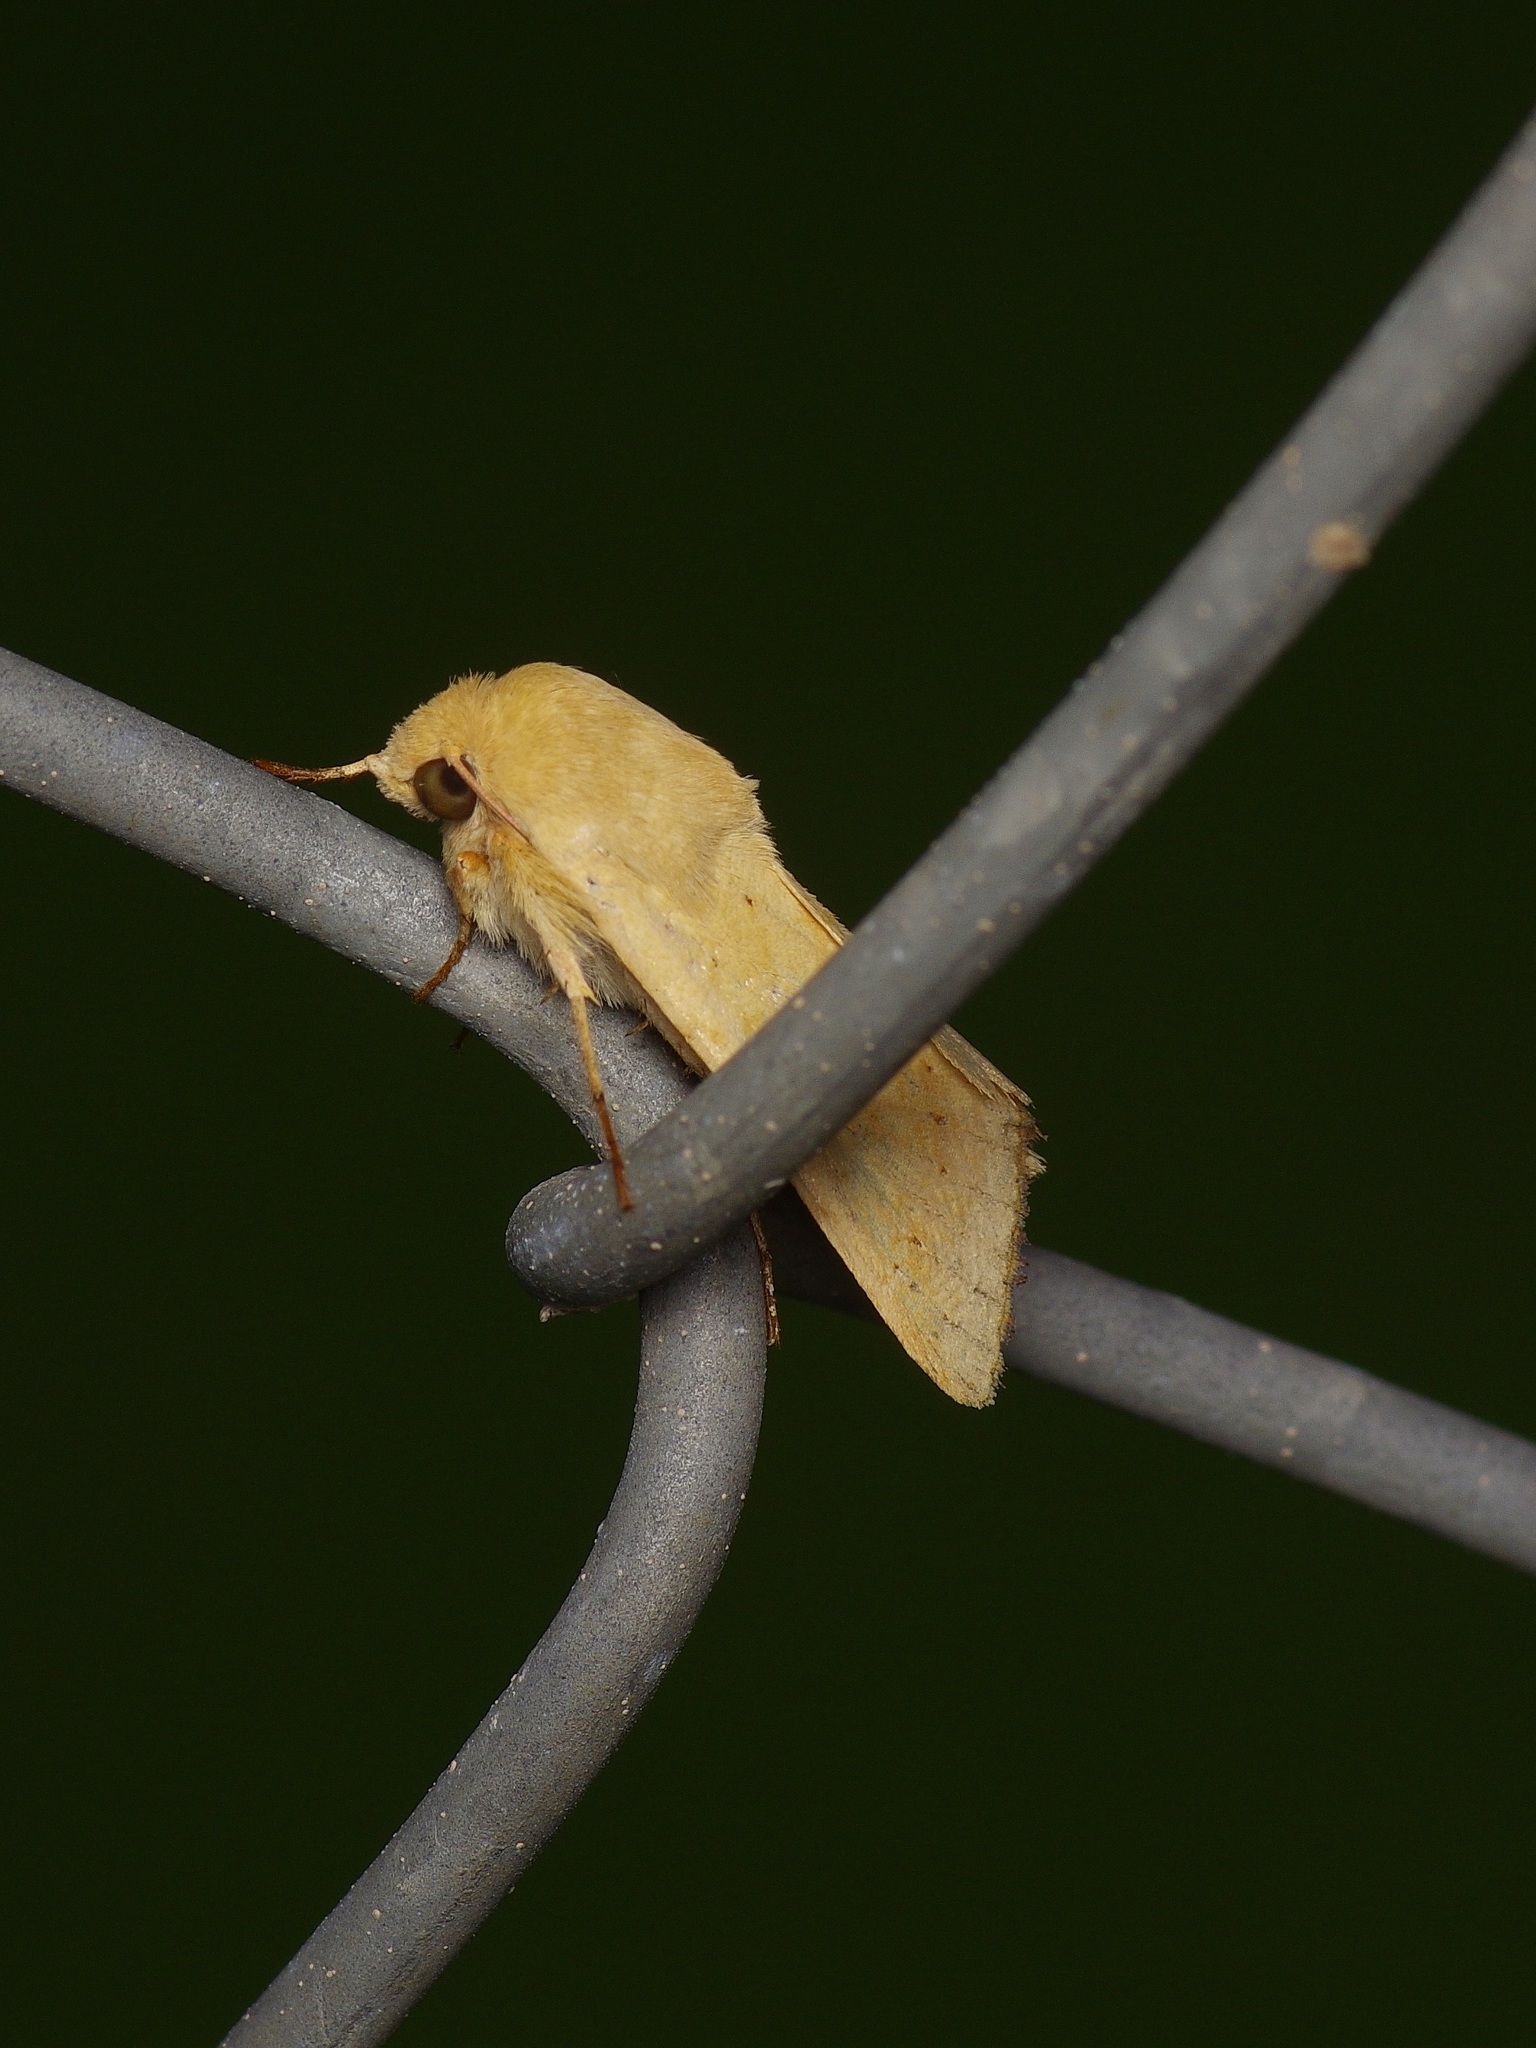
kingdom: Animalia
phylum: Arthropoda
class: Insecta
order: Lepidoptera
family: Noctuidae
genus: Helicoverpa
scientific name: Helicoverpa zea
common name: Bollworm
